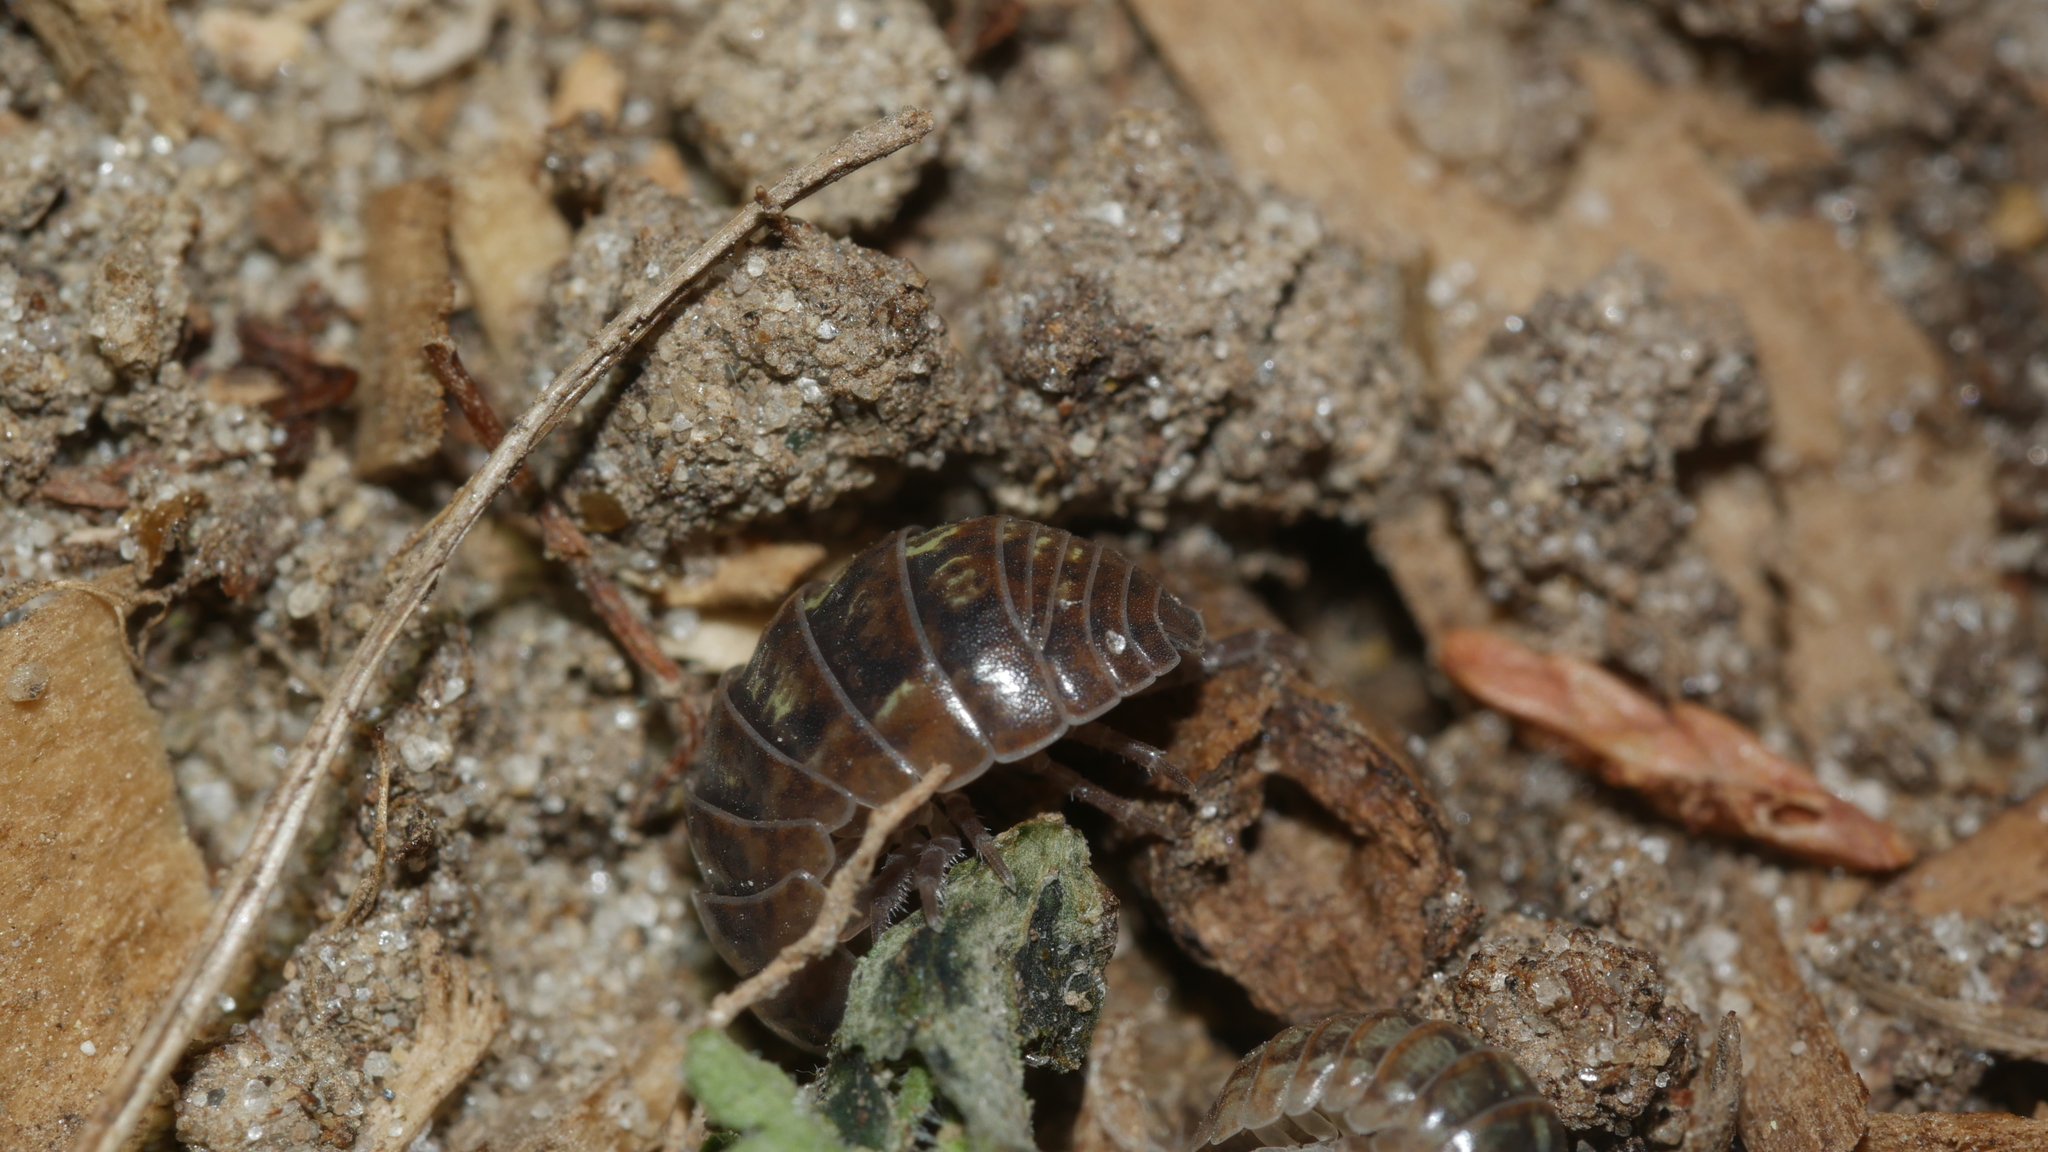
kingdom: Animalia
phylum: Arthropoda
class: Malacostraca
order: Isopoda
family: Armadillidiidae
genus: Armadillidium
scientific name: Armadillidium vulgare
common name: Common pill woodlouse
